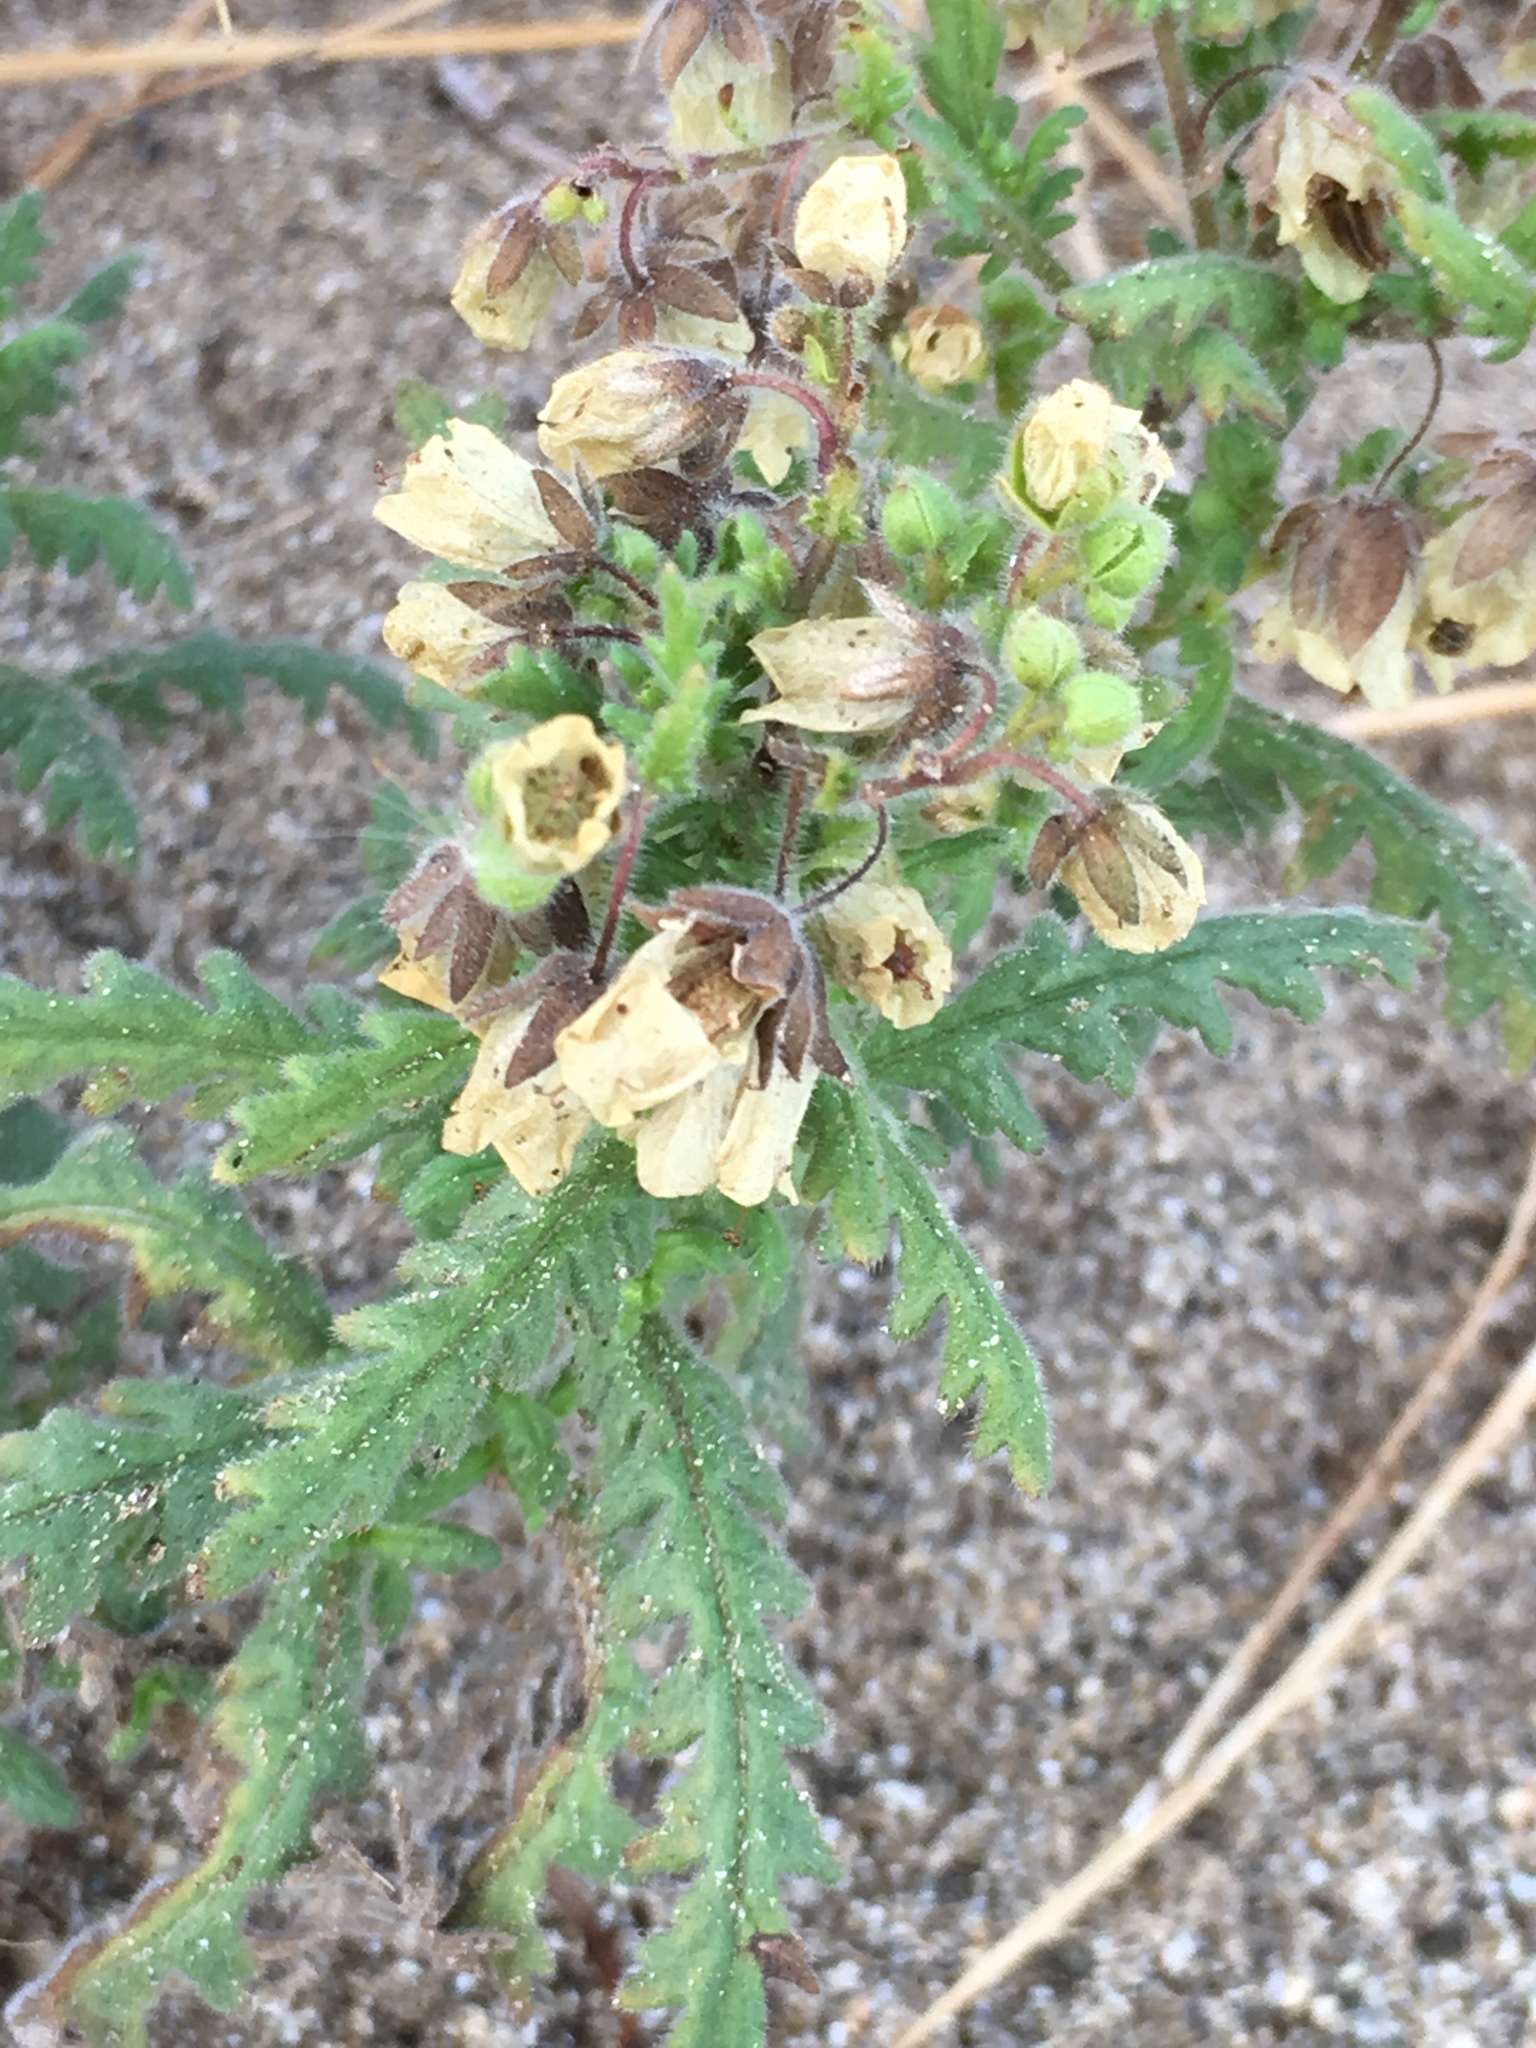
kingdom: Plantae
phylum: Tracheophyta
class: Magnoliopsida
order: Boraginales
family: Hydrophyllaceae
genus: Emmenanthe
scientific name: Emmenanthe penduliflora
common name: Whispering-bells
